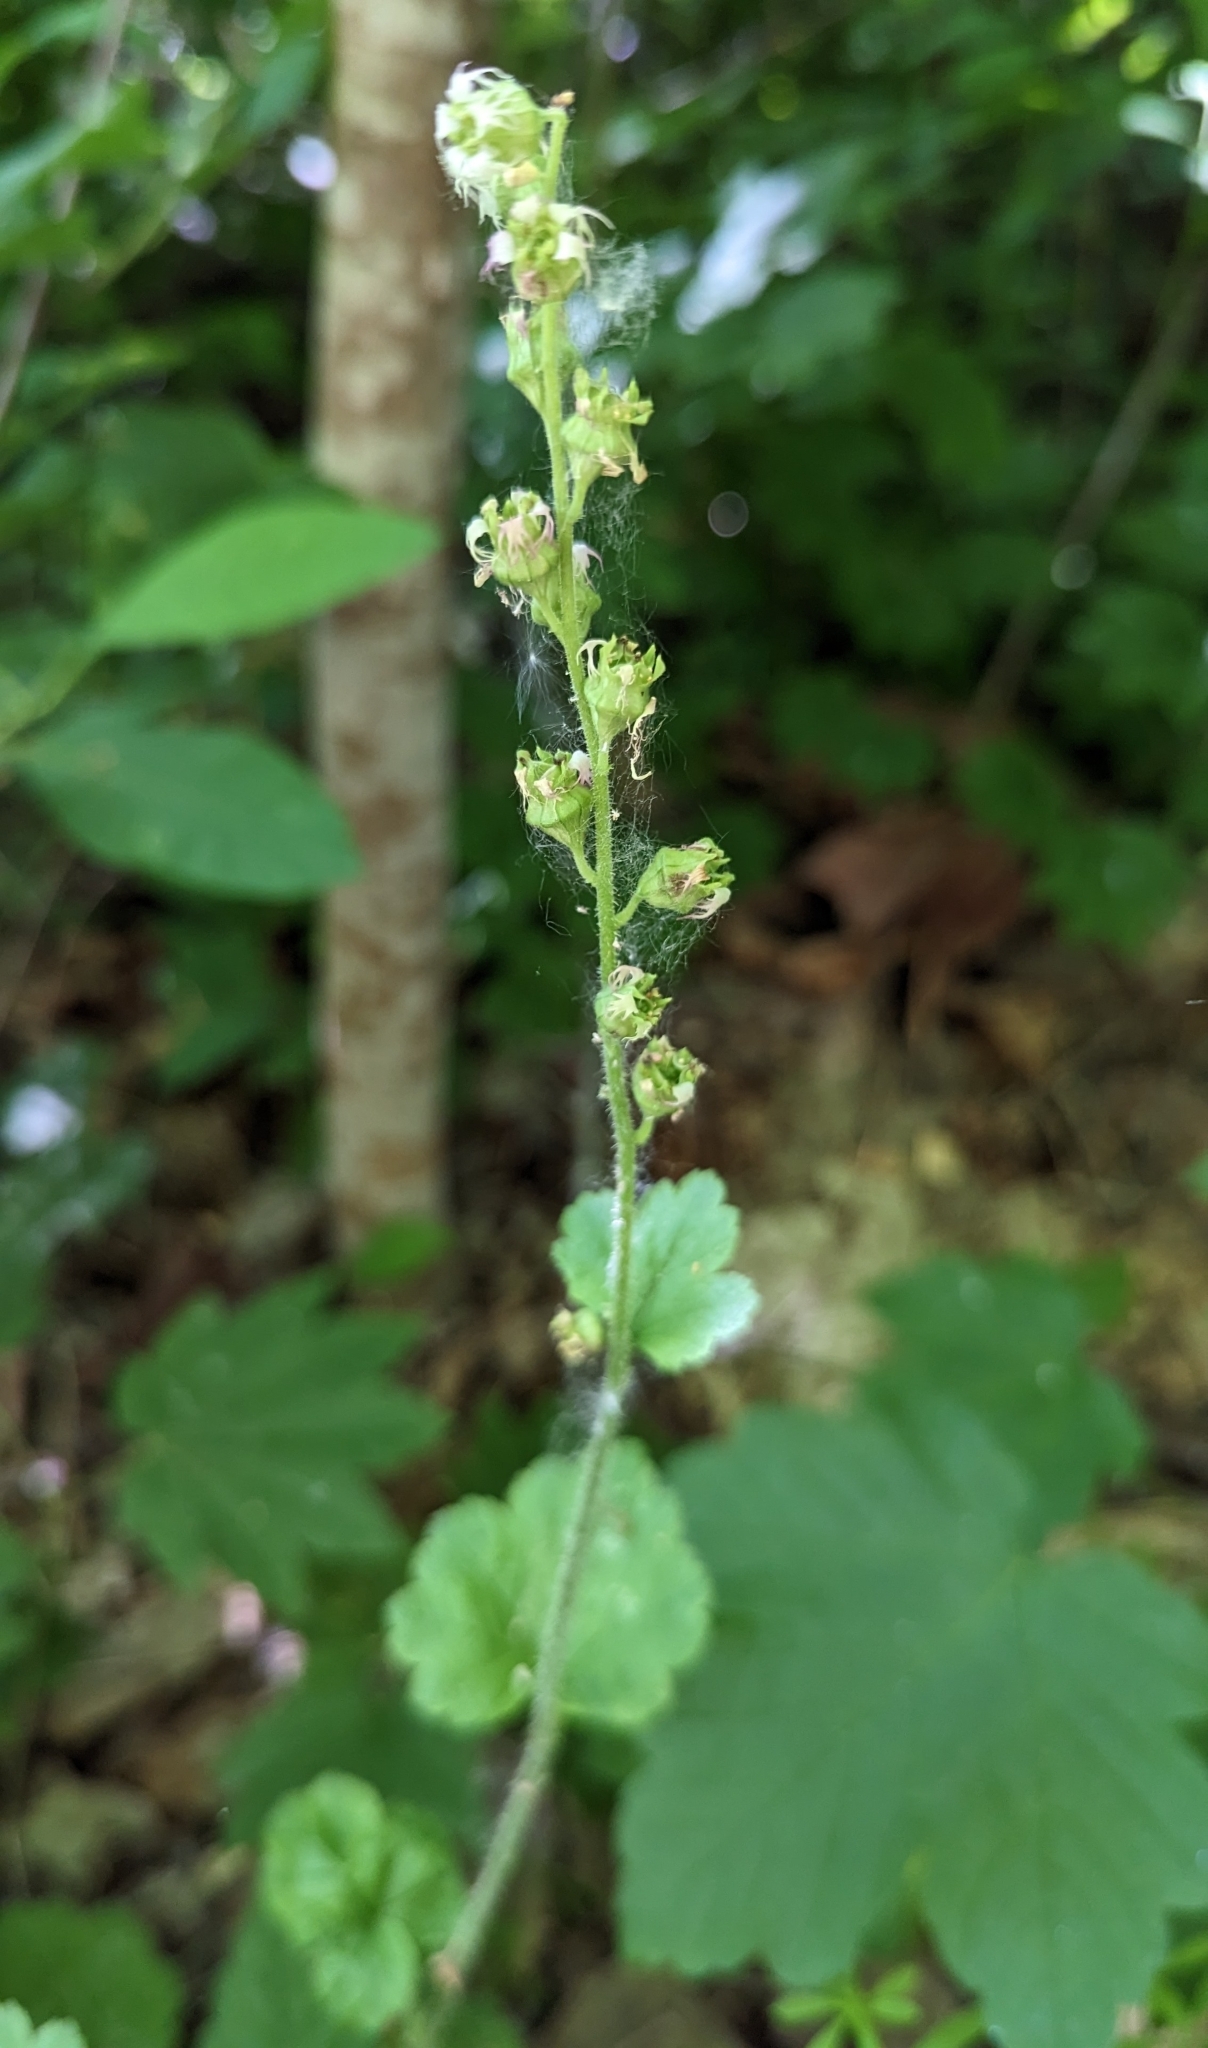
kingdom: Plantae
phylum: Tracheophyta
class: Magnoliopsida
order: Saxifragales
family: Saxifragaceae
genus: Tellima
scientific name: Tellima grandiflora
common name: Fringecups
